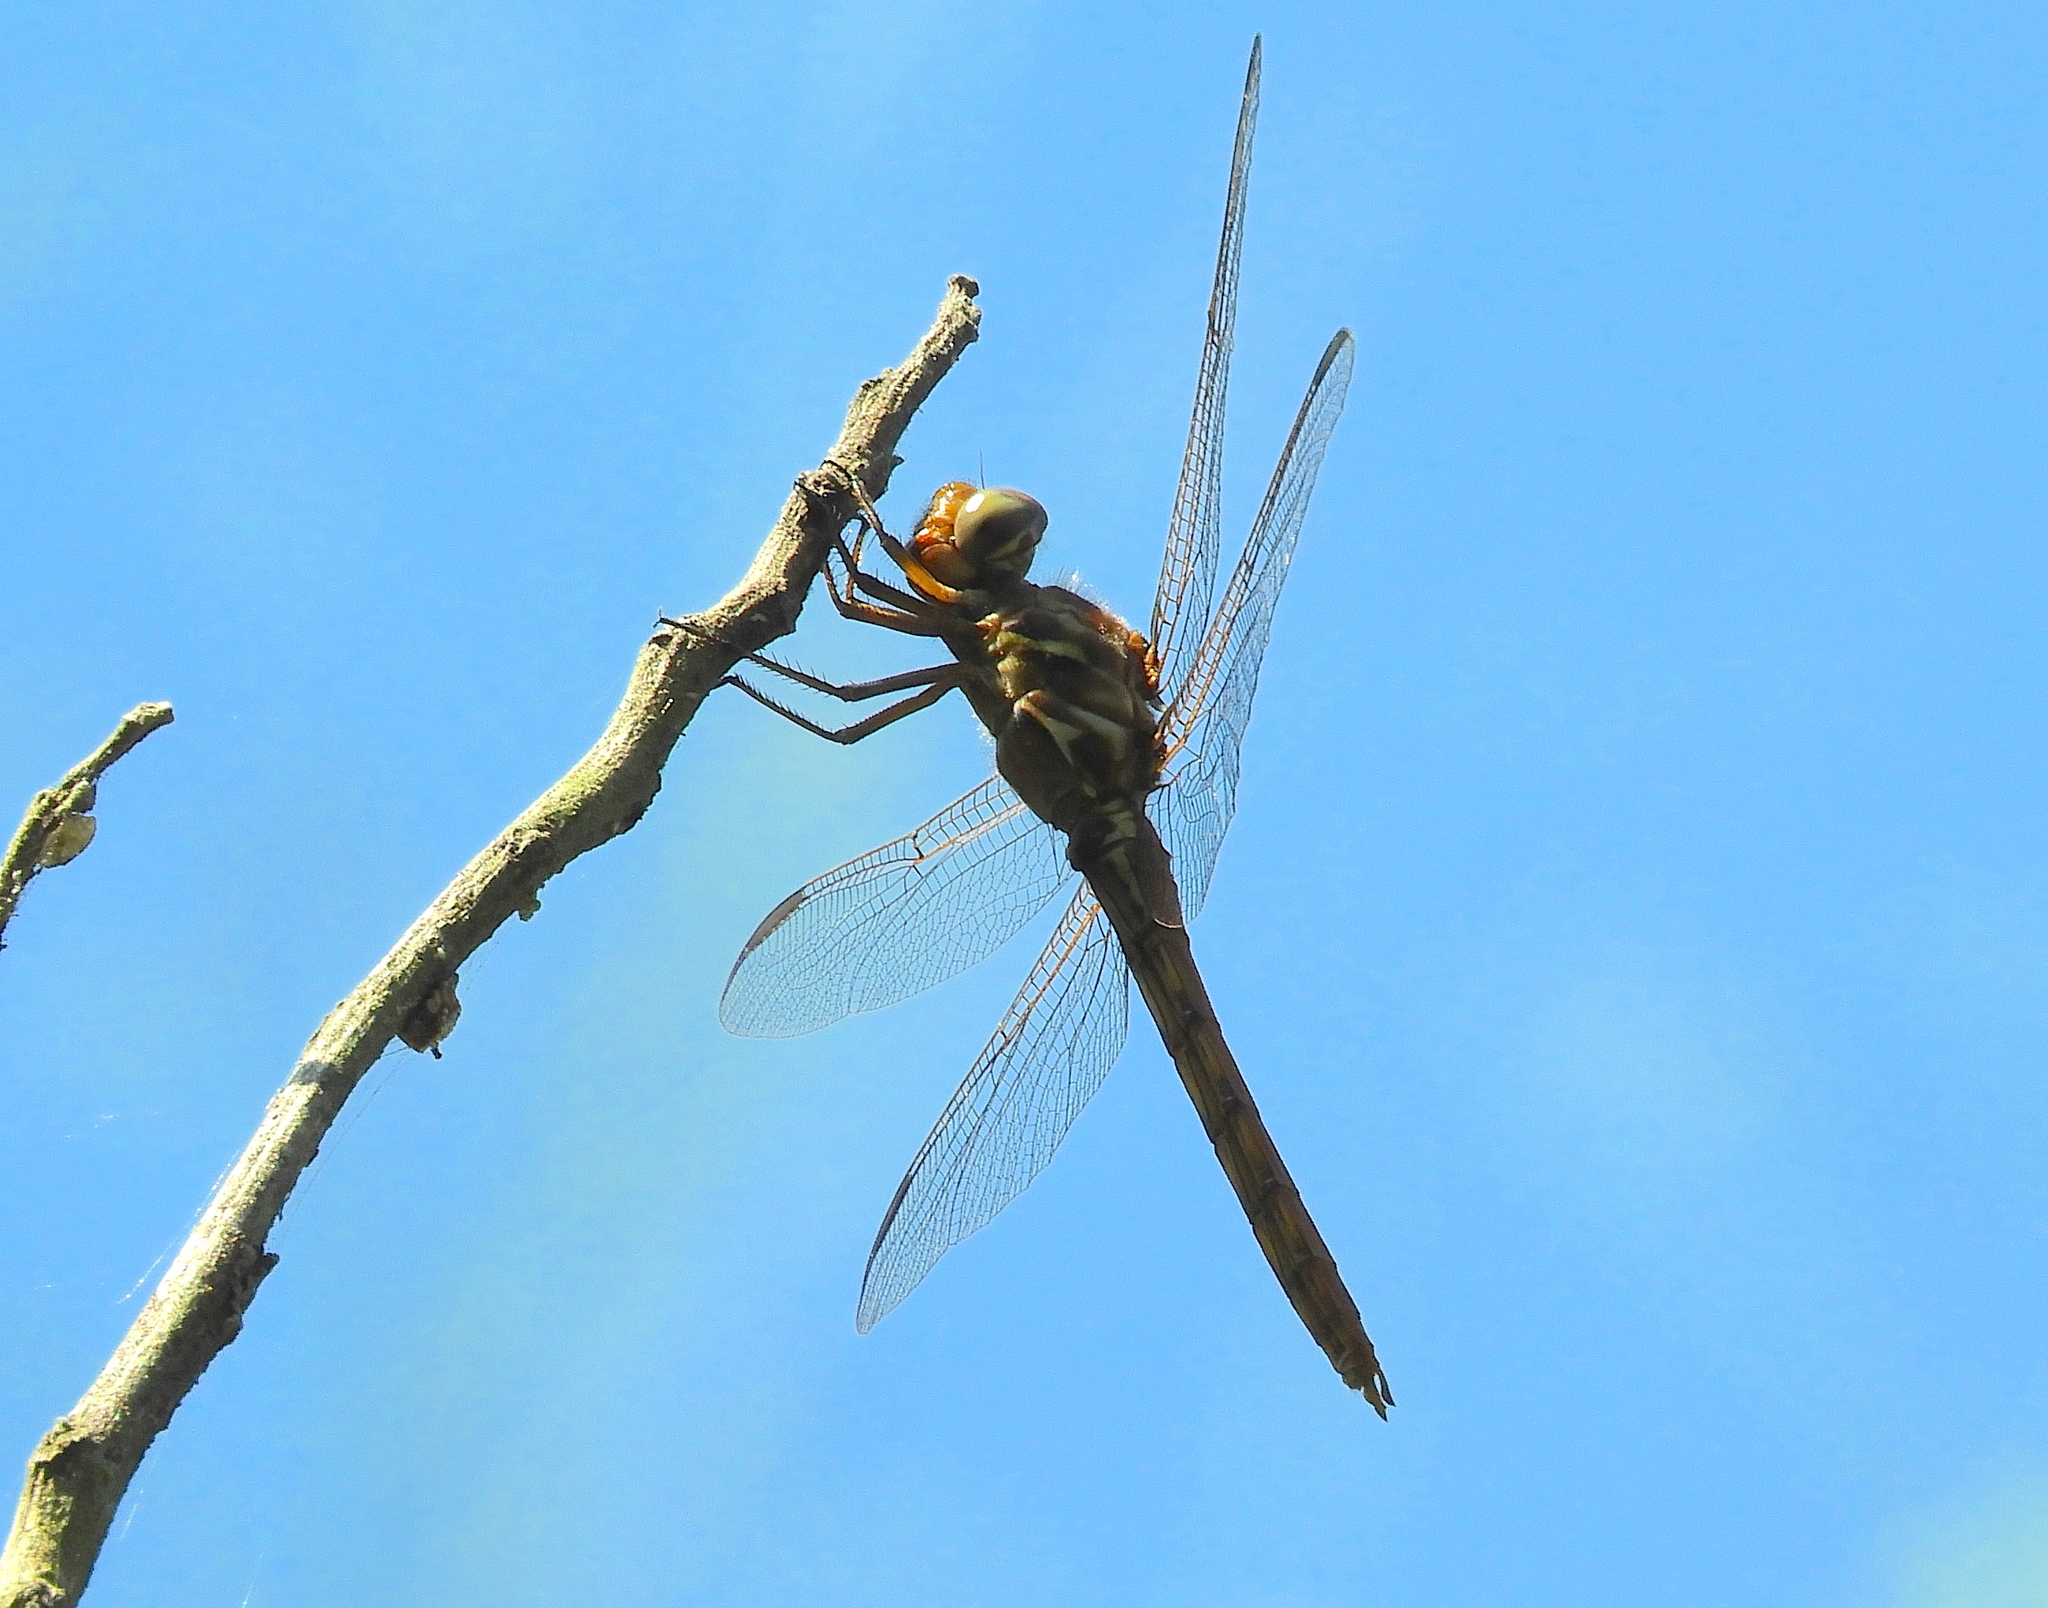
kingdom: Animalia
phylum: Arthropoda
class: Insecta
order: Odonata
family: Libellulidae
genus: Orthemis
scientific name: Orthemis ferruginea
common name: Roseate skimmer
